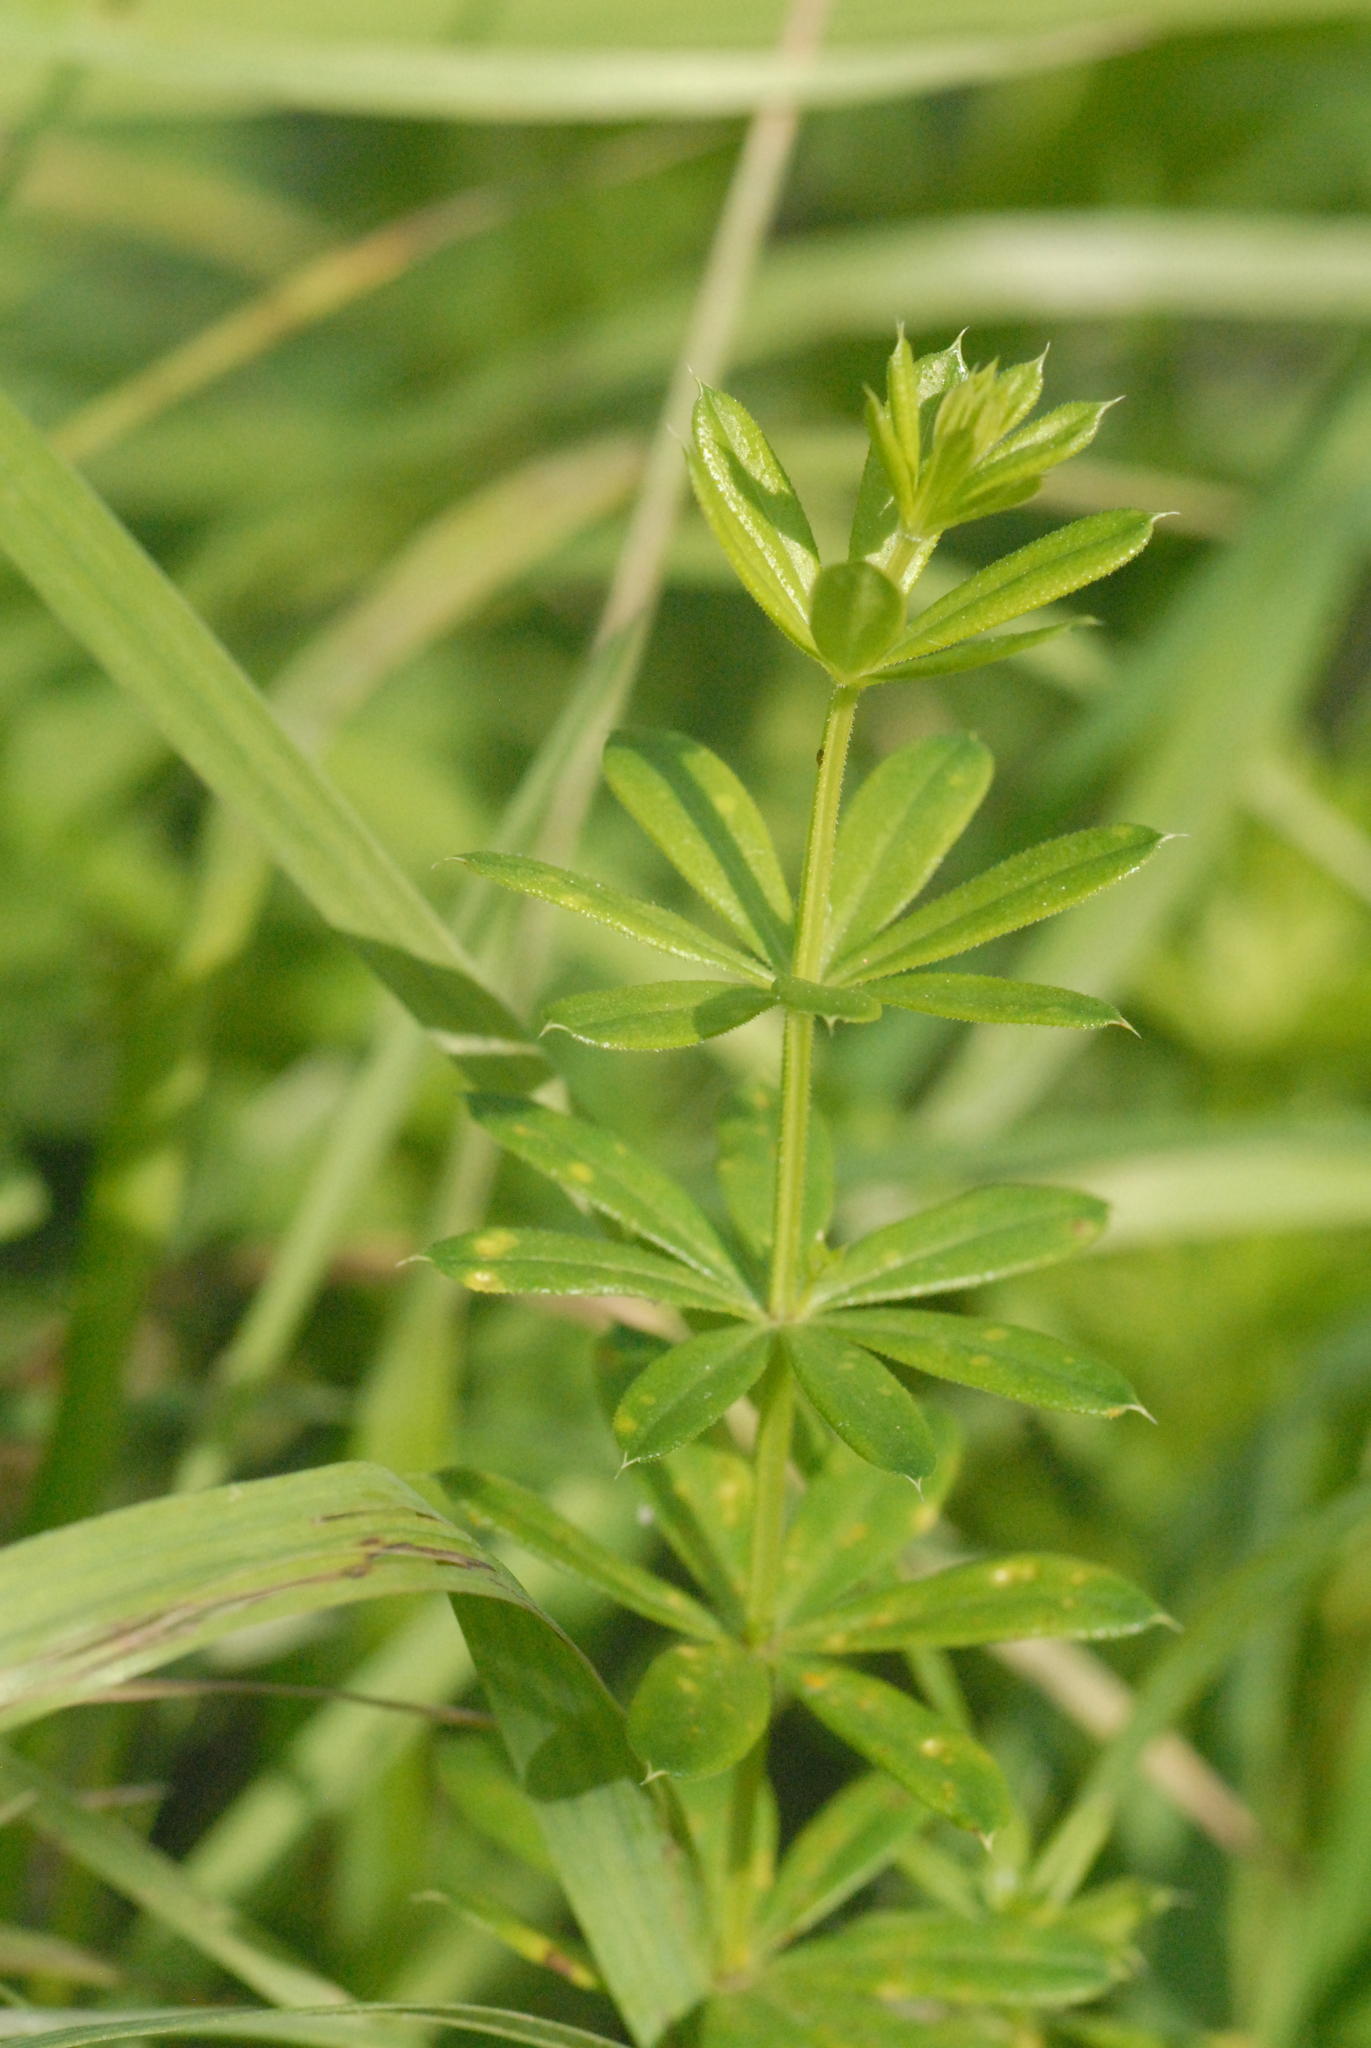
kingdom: Plantae
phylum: Tracheophyta
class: Magnoliopsida
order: Gentianales
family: Rubiaceae
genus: Galium
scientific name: Galium mollugo
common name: Hedge bedstraw
